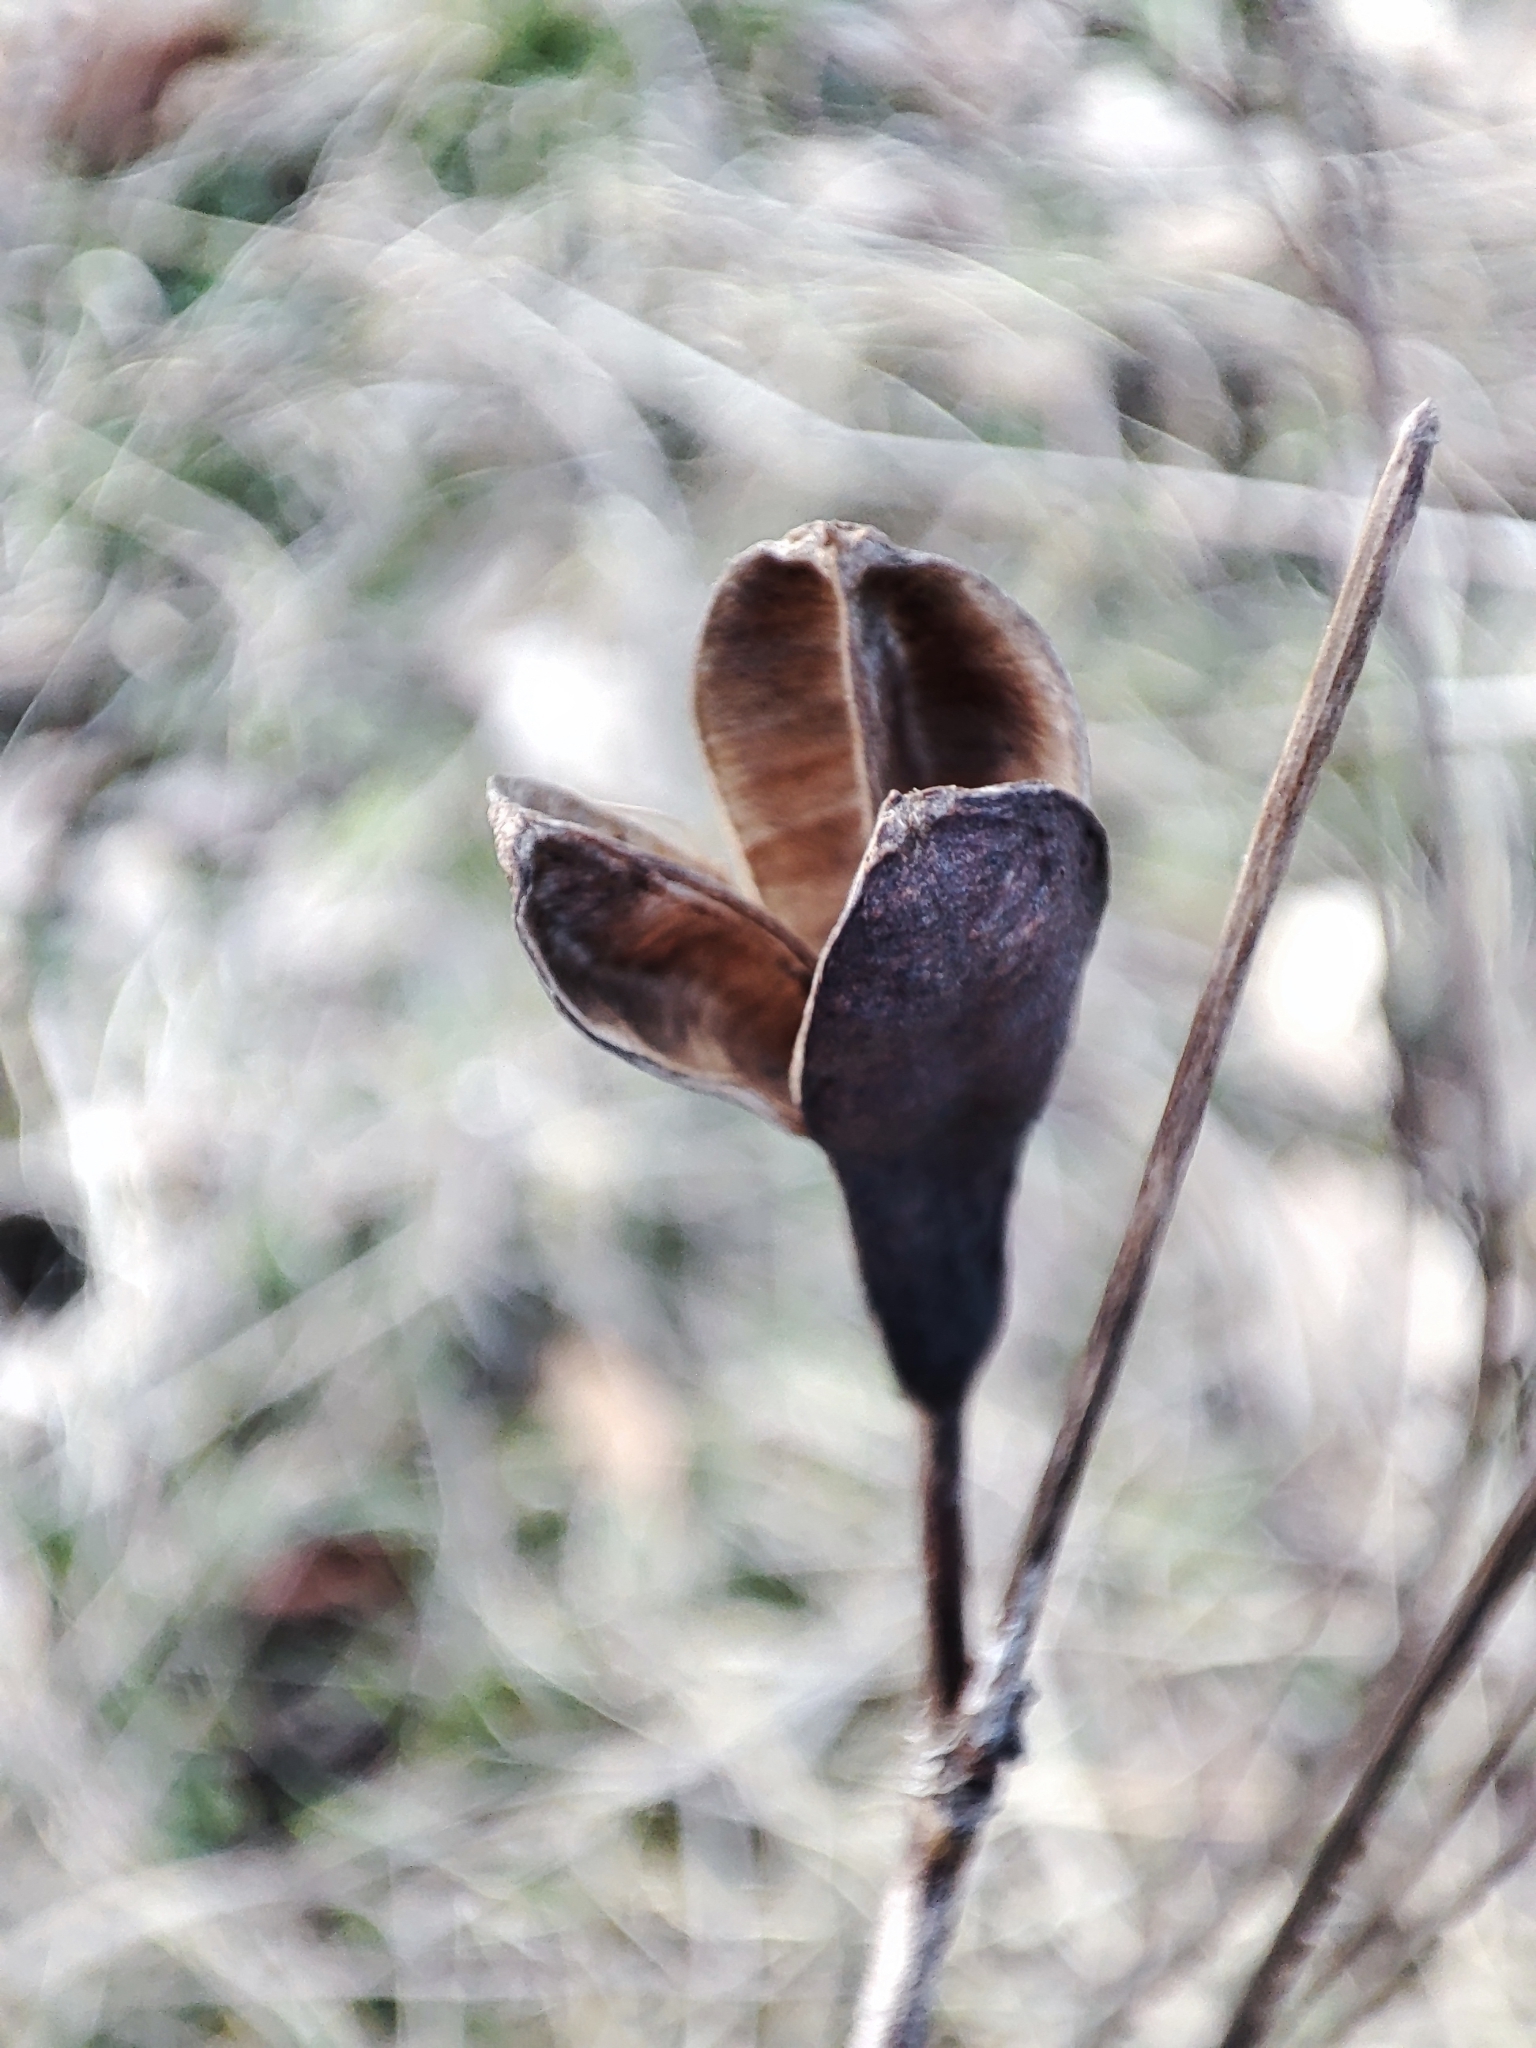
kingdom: Plantae
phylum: Tracheophyta
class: Liliopsida
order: Asparagales
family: Iridaceae
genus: Iris
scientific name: Iris sibirica
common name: Siberian iris
